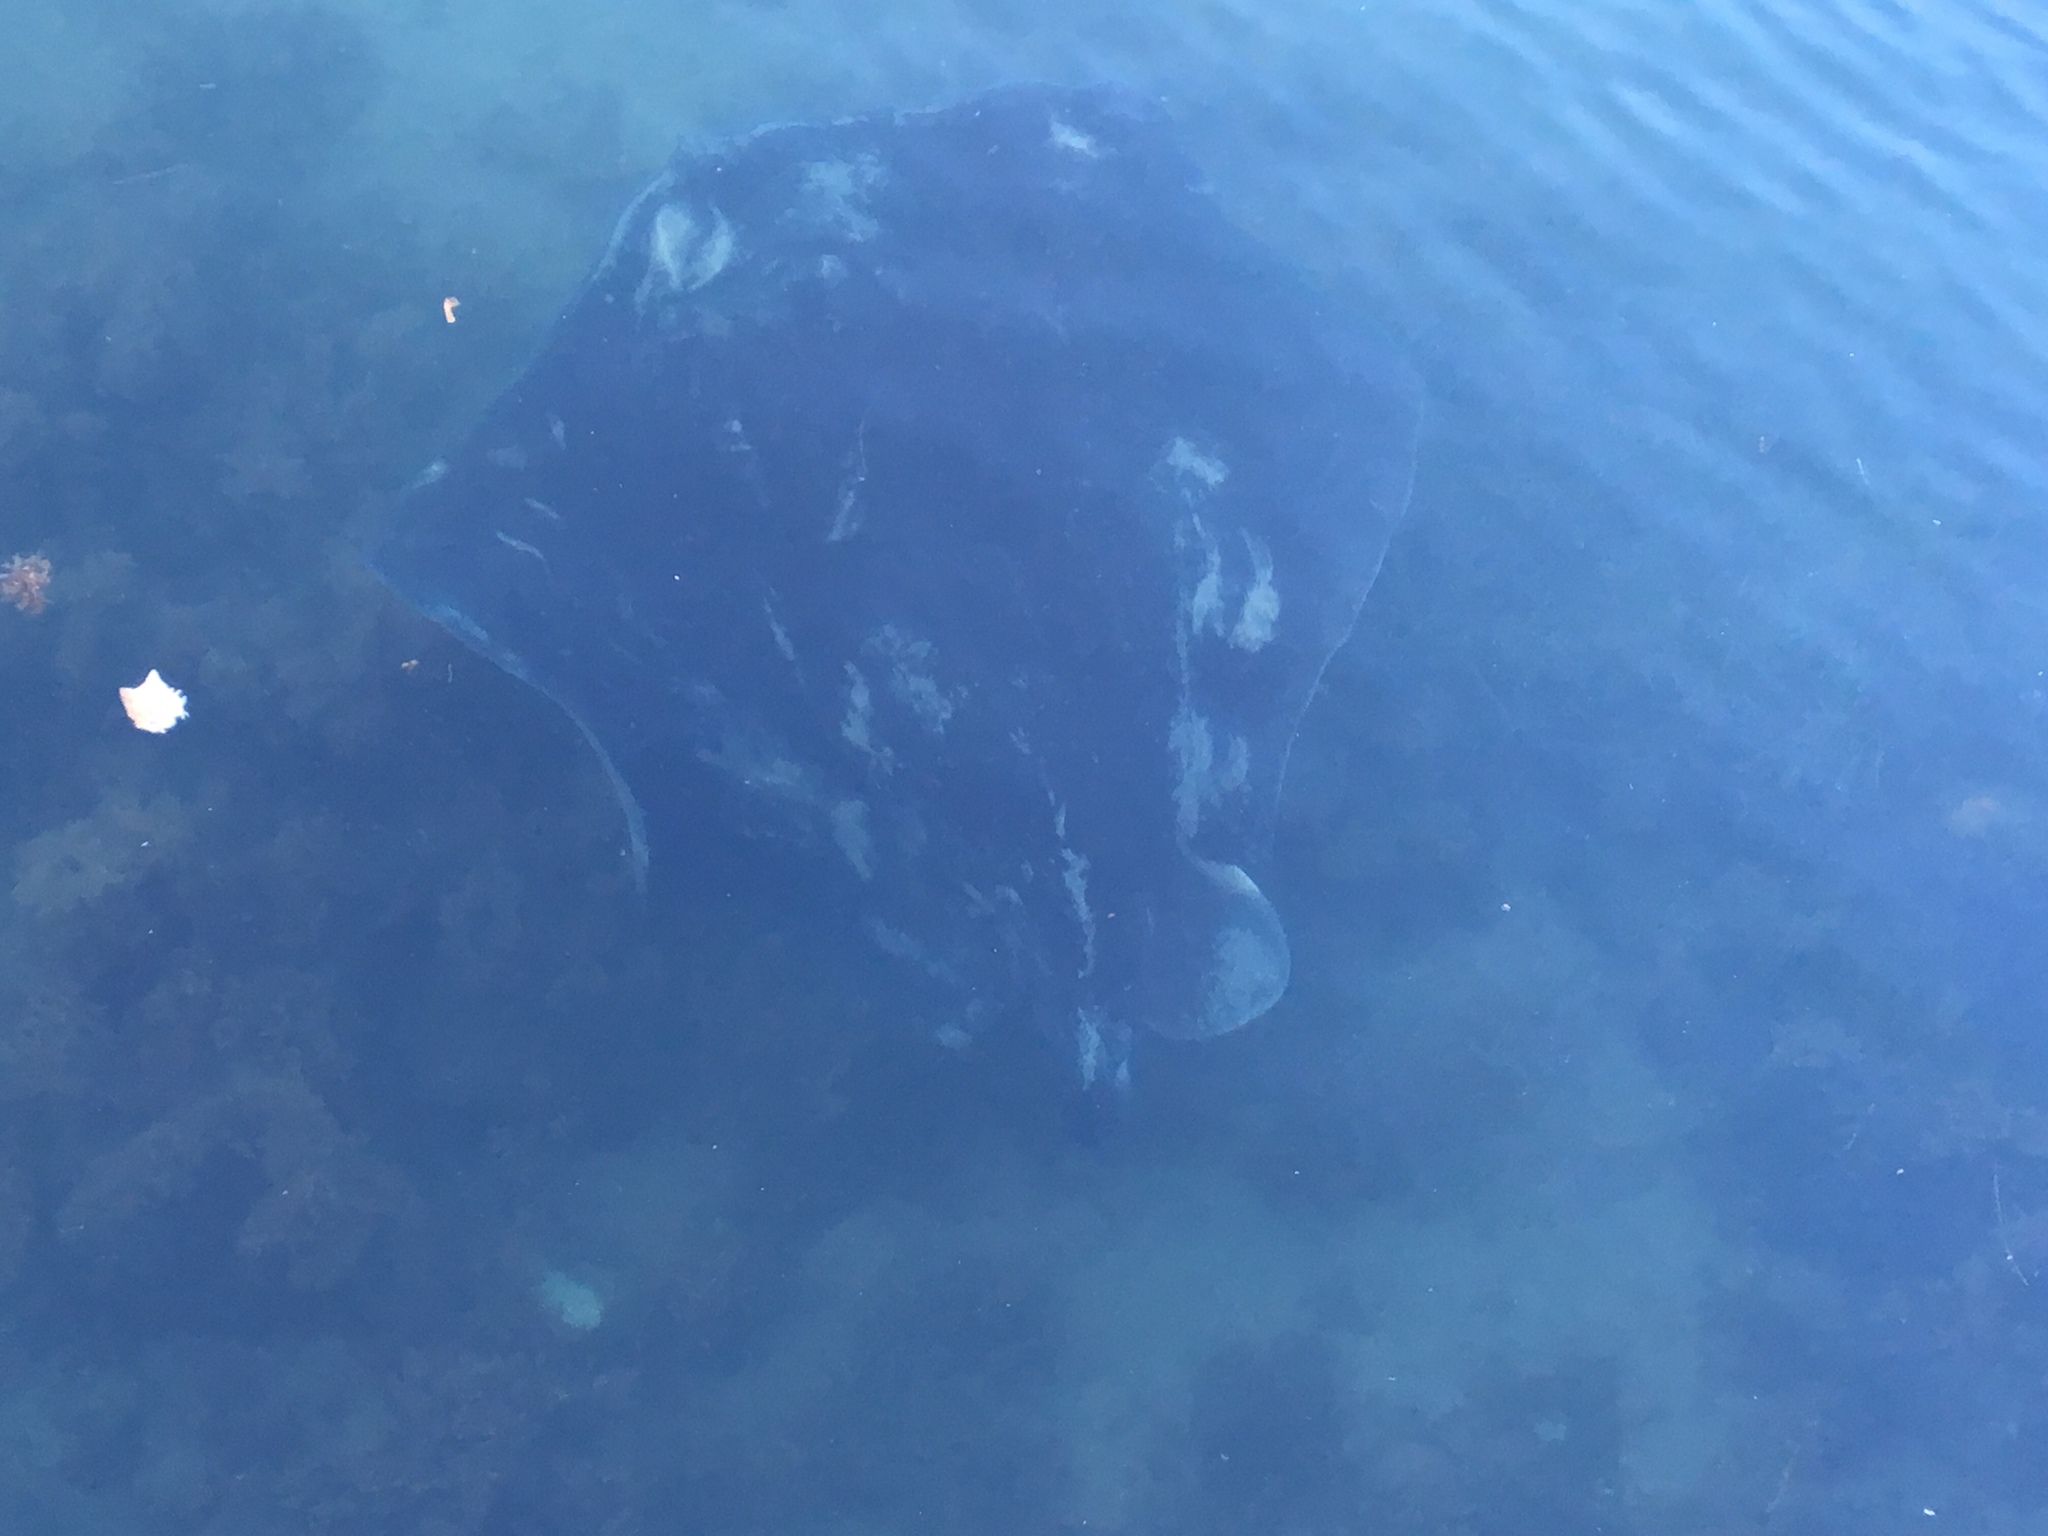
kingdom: Animalia
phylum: Chordata
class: Elasmobranchii
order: Myliobatiformes
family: Dasyatidae
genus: Bathytoshia
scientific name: Bathytoshia brevicaudata
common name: Short-tail stingray
